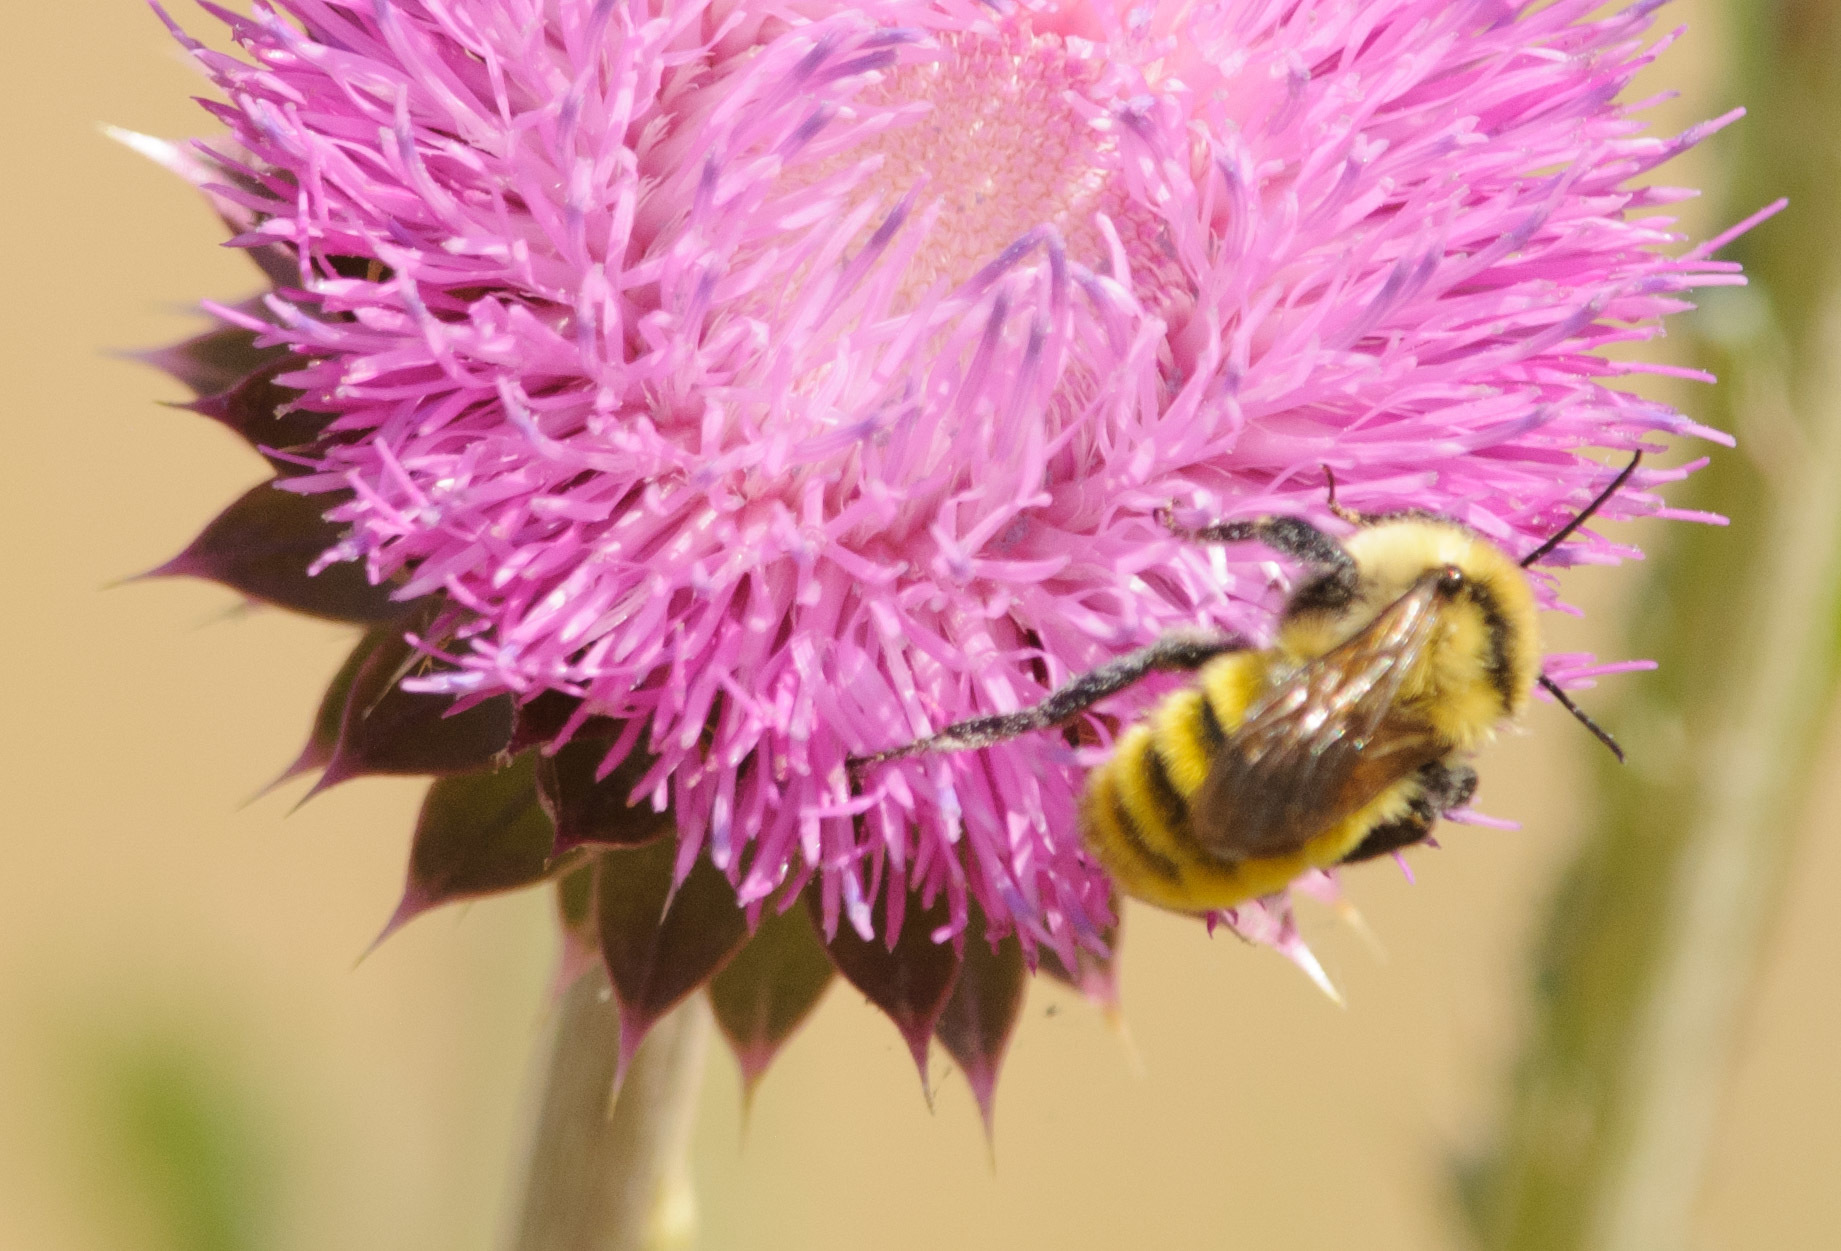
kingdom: Animalia
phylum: Arthropoda
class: Insecta
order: Hymenoptera
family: Apidae
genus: Bombus
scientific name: Bombus fervidus
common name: Yellow bumble bee
